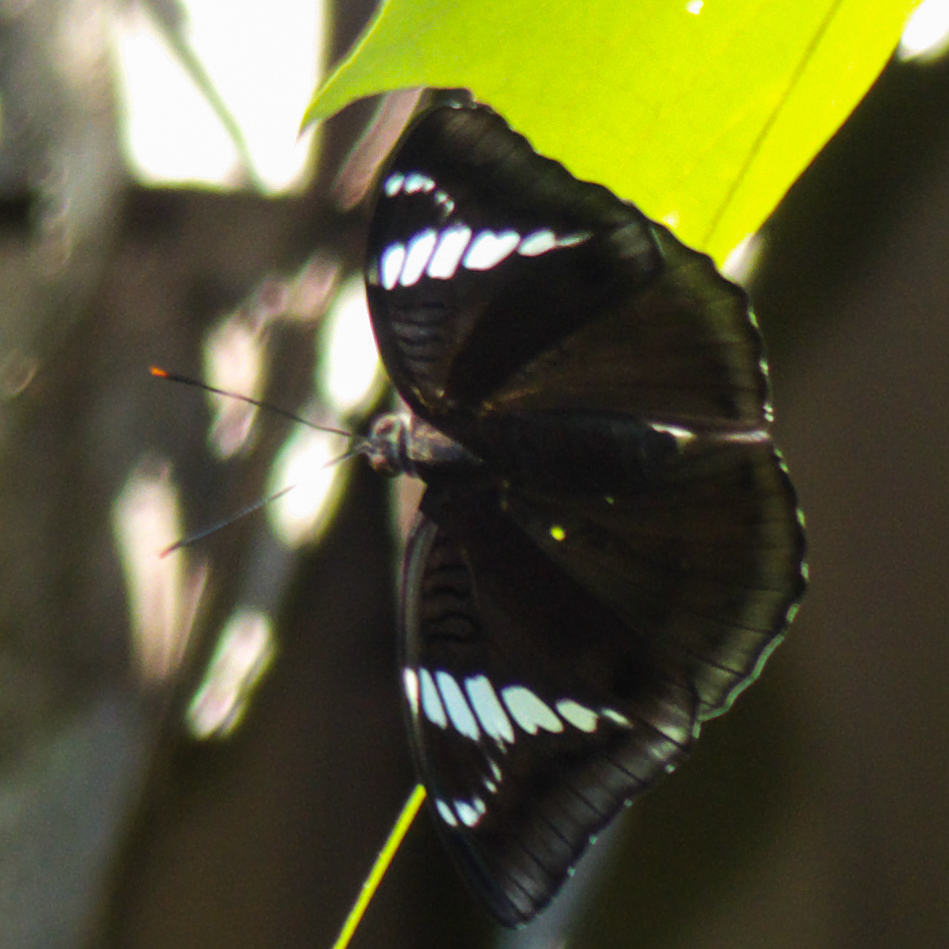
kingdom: Animalia
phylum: Arthropoda
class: Insecta
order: Lepidoptera
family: Nymphalidae
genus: Euthalia
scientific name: Euthalia phemius
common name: White-edged blue baron
